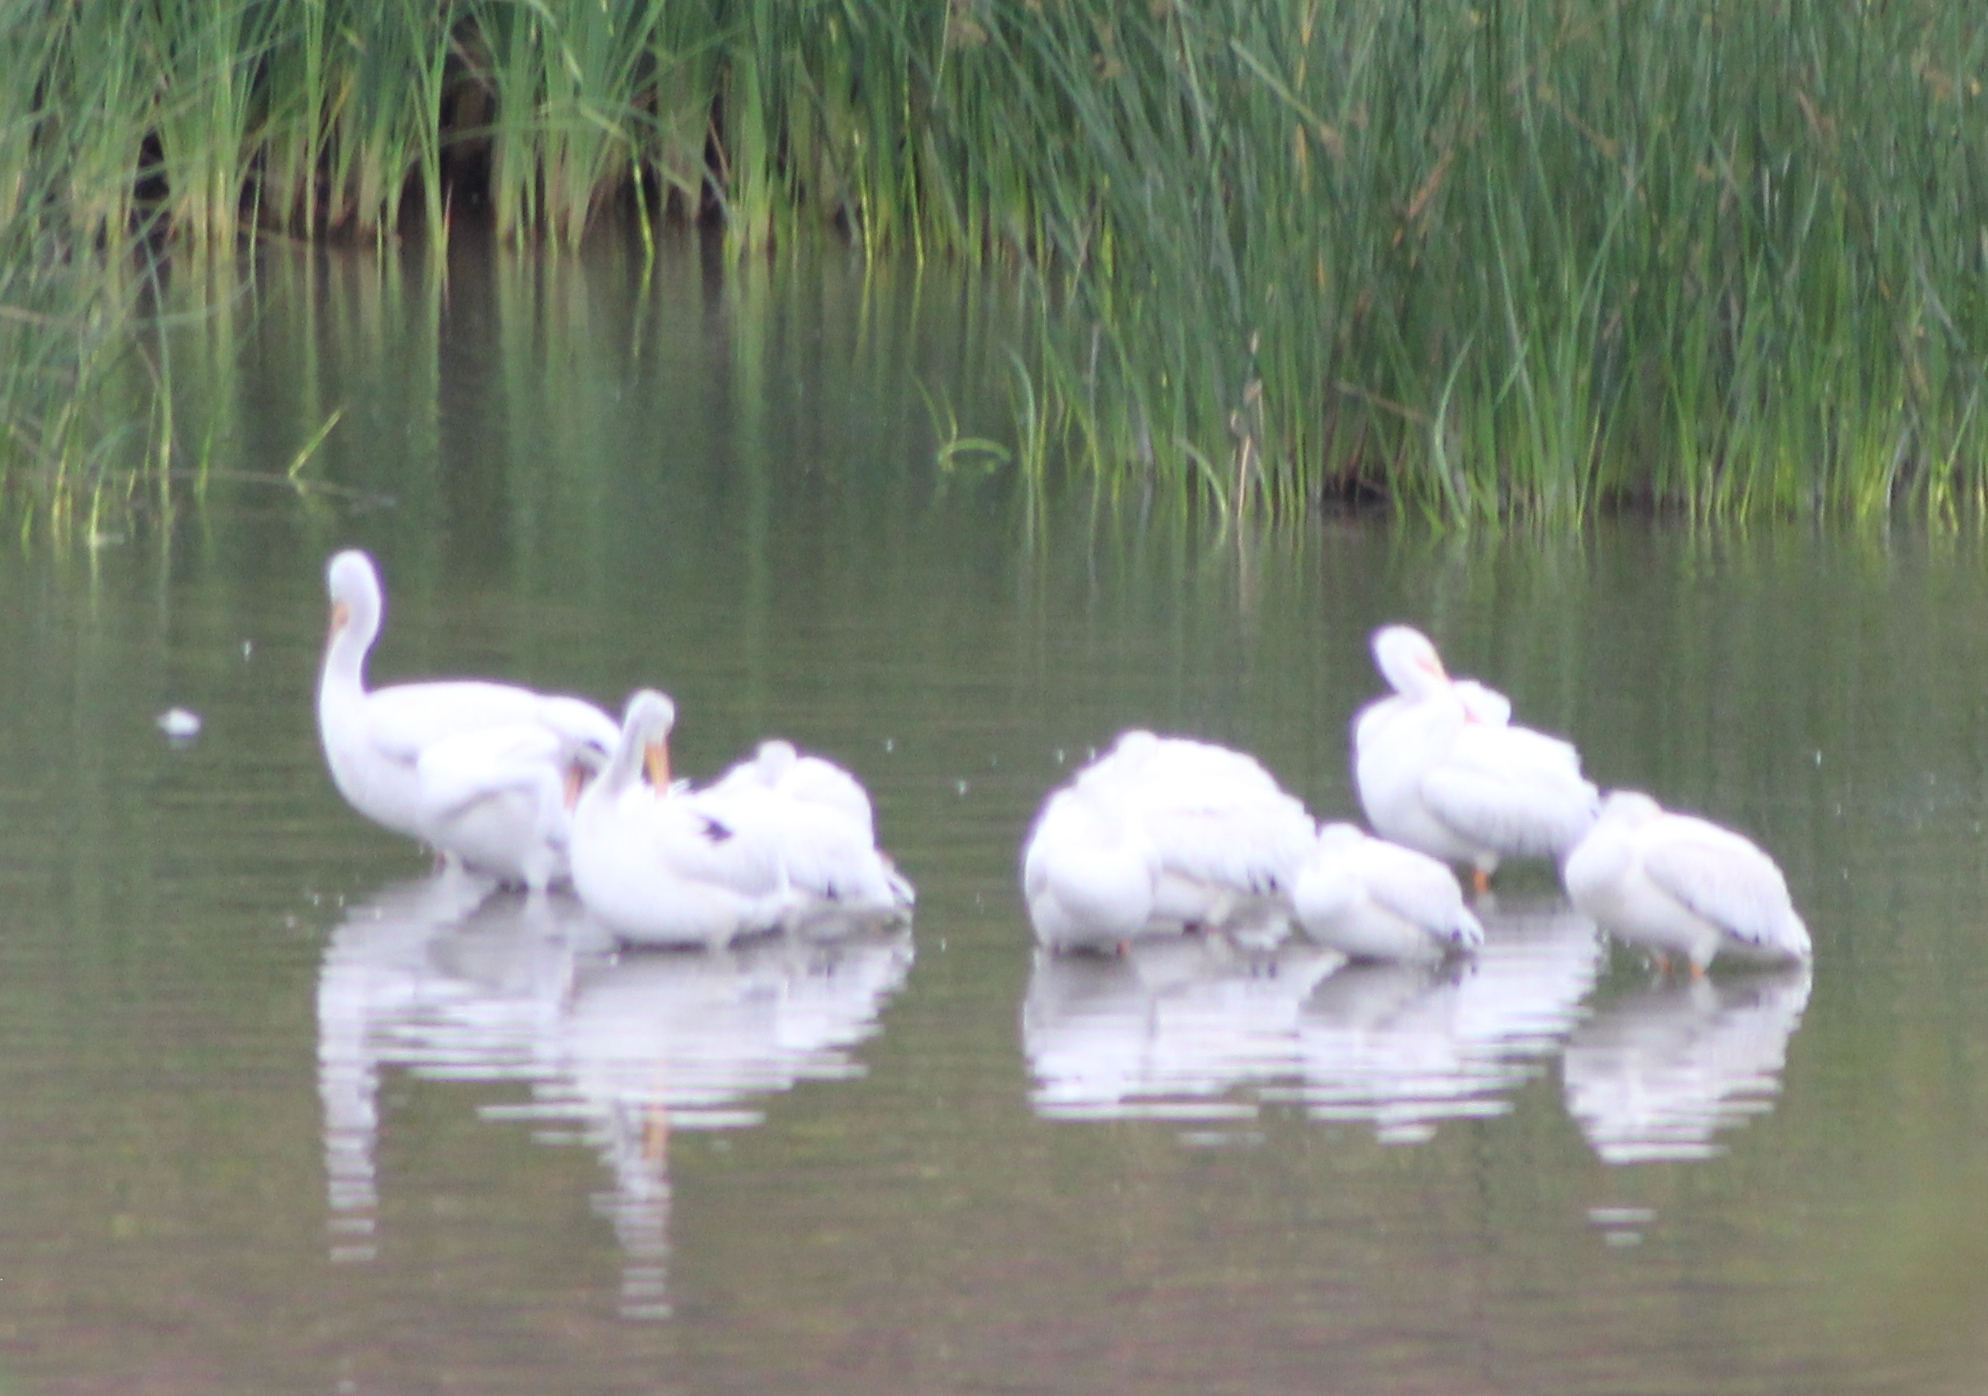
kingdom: Animalia
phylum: Chordata
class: Aves
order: Pelecaniformes
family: Pelecanidae
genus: Pelecanus
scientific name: Pelecanus erythrorhynchos
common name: American white pelican
